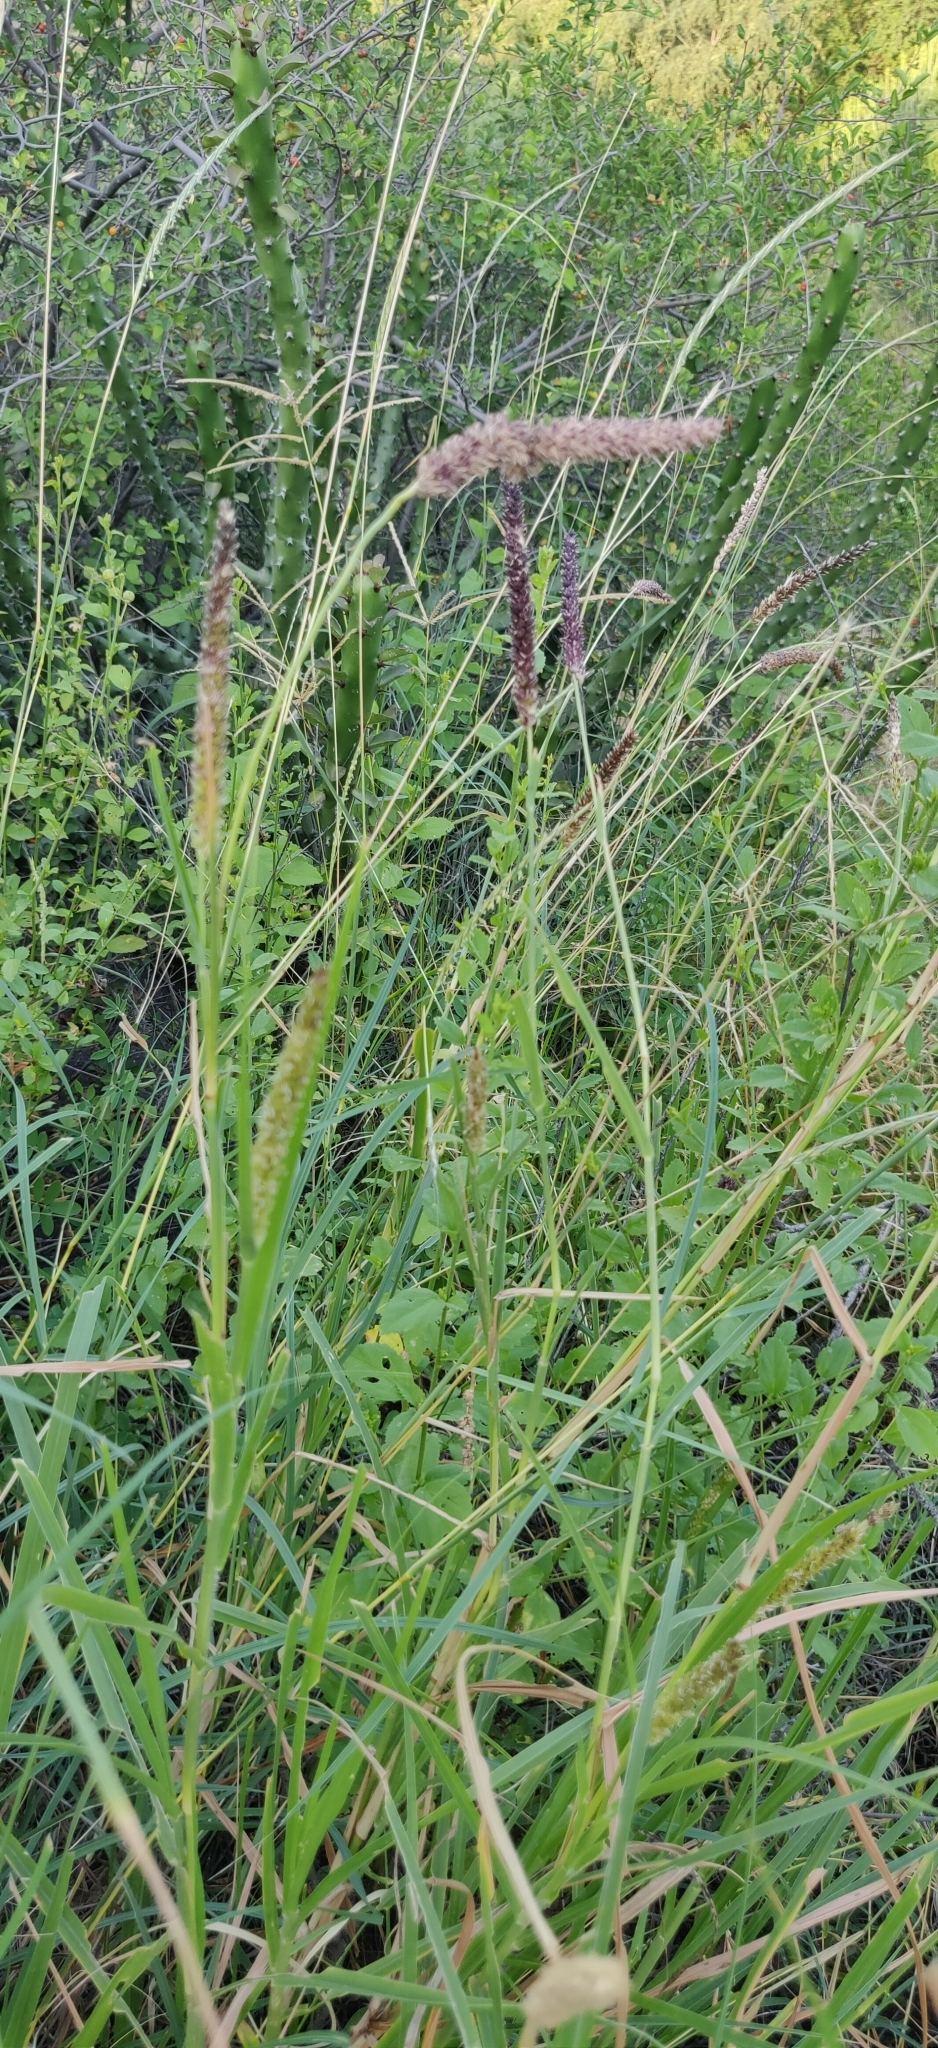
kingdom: Plantae
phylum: Tracheophyta
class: Liliopsida
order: Poales
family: Poaceae
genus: Cenchrus
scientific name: Cenchrus setigerus
